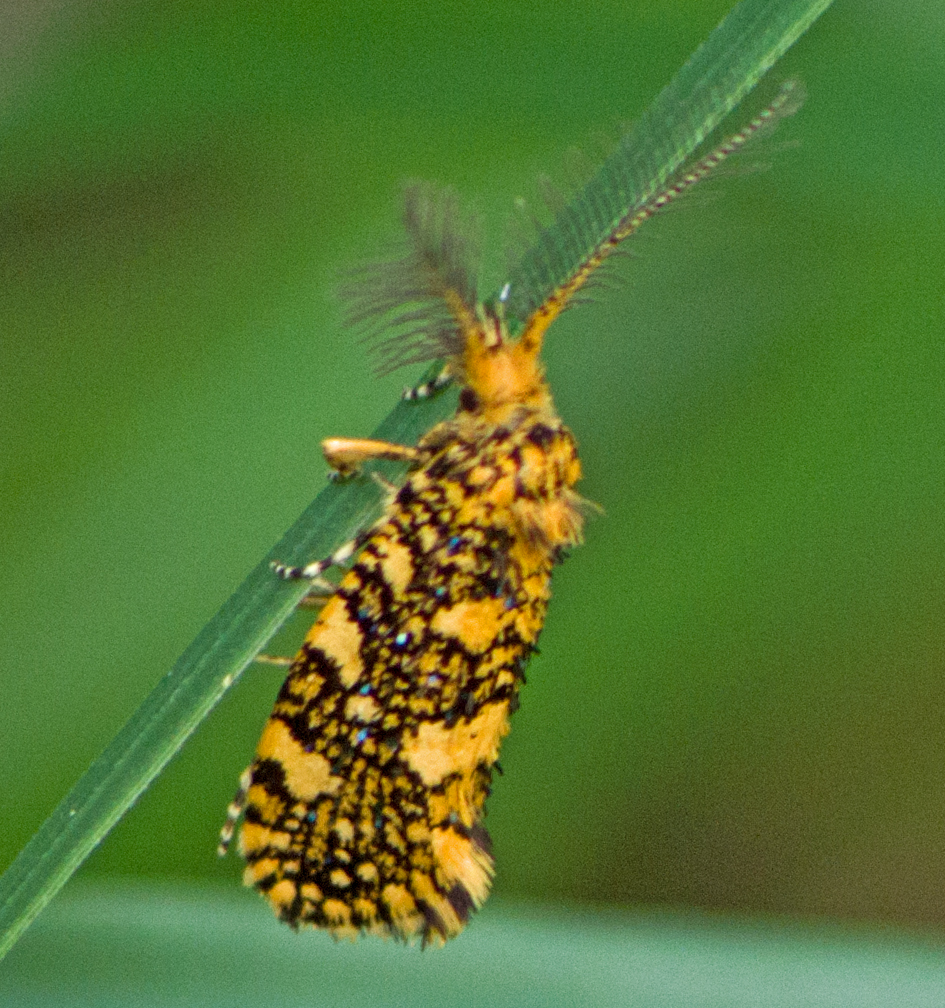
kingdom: Animalia
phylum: Arthropoda
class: Insecta
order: Lepidoptera
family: Tineidae
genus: Euplocamus
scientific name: Euplocamus ophisa
